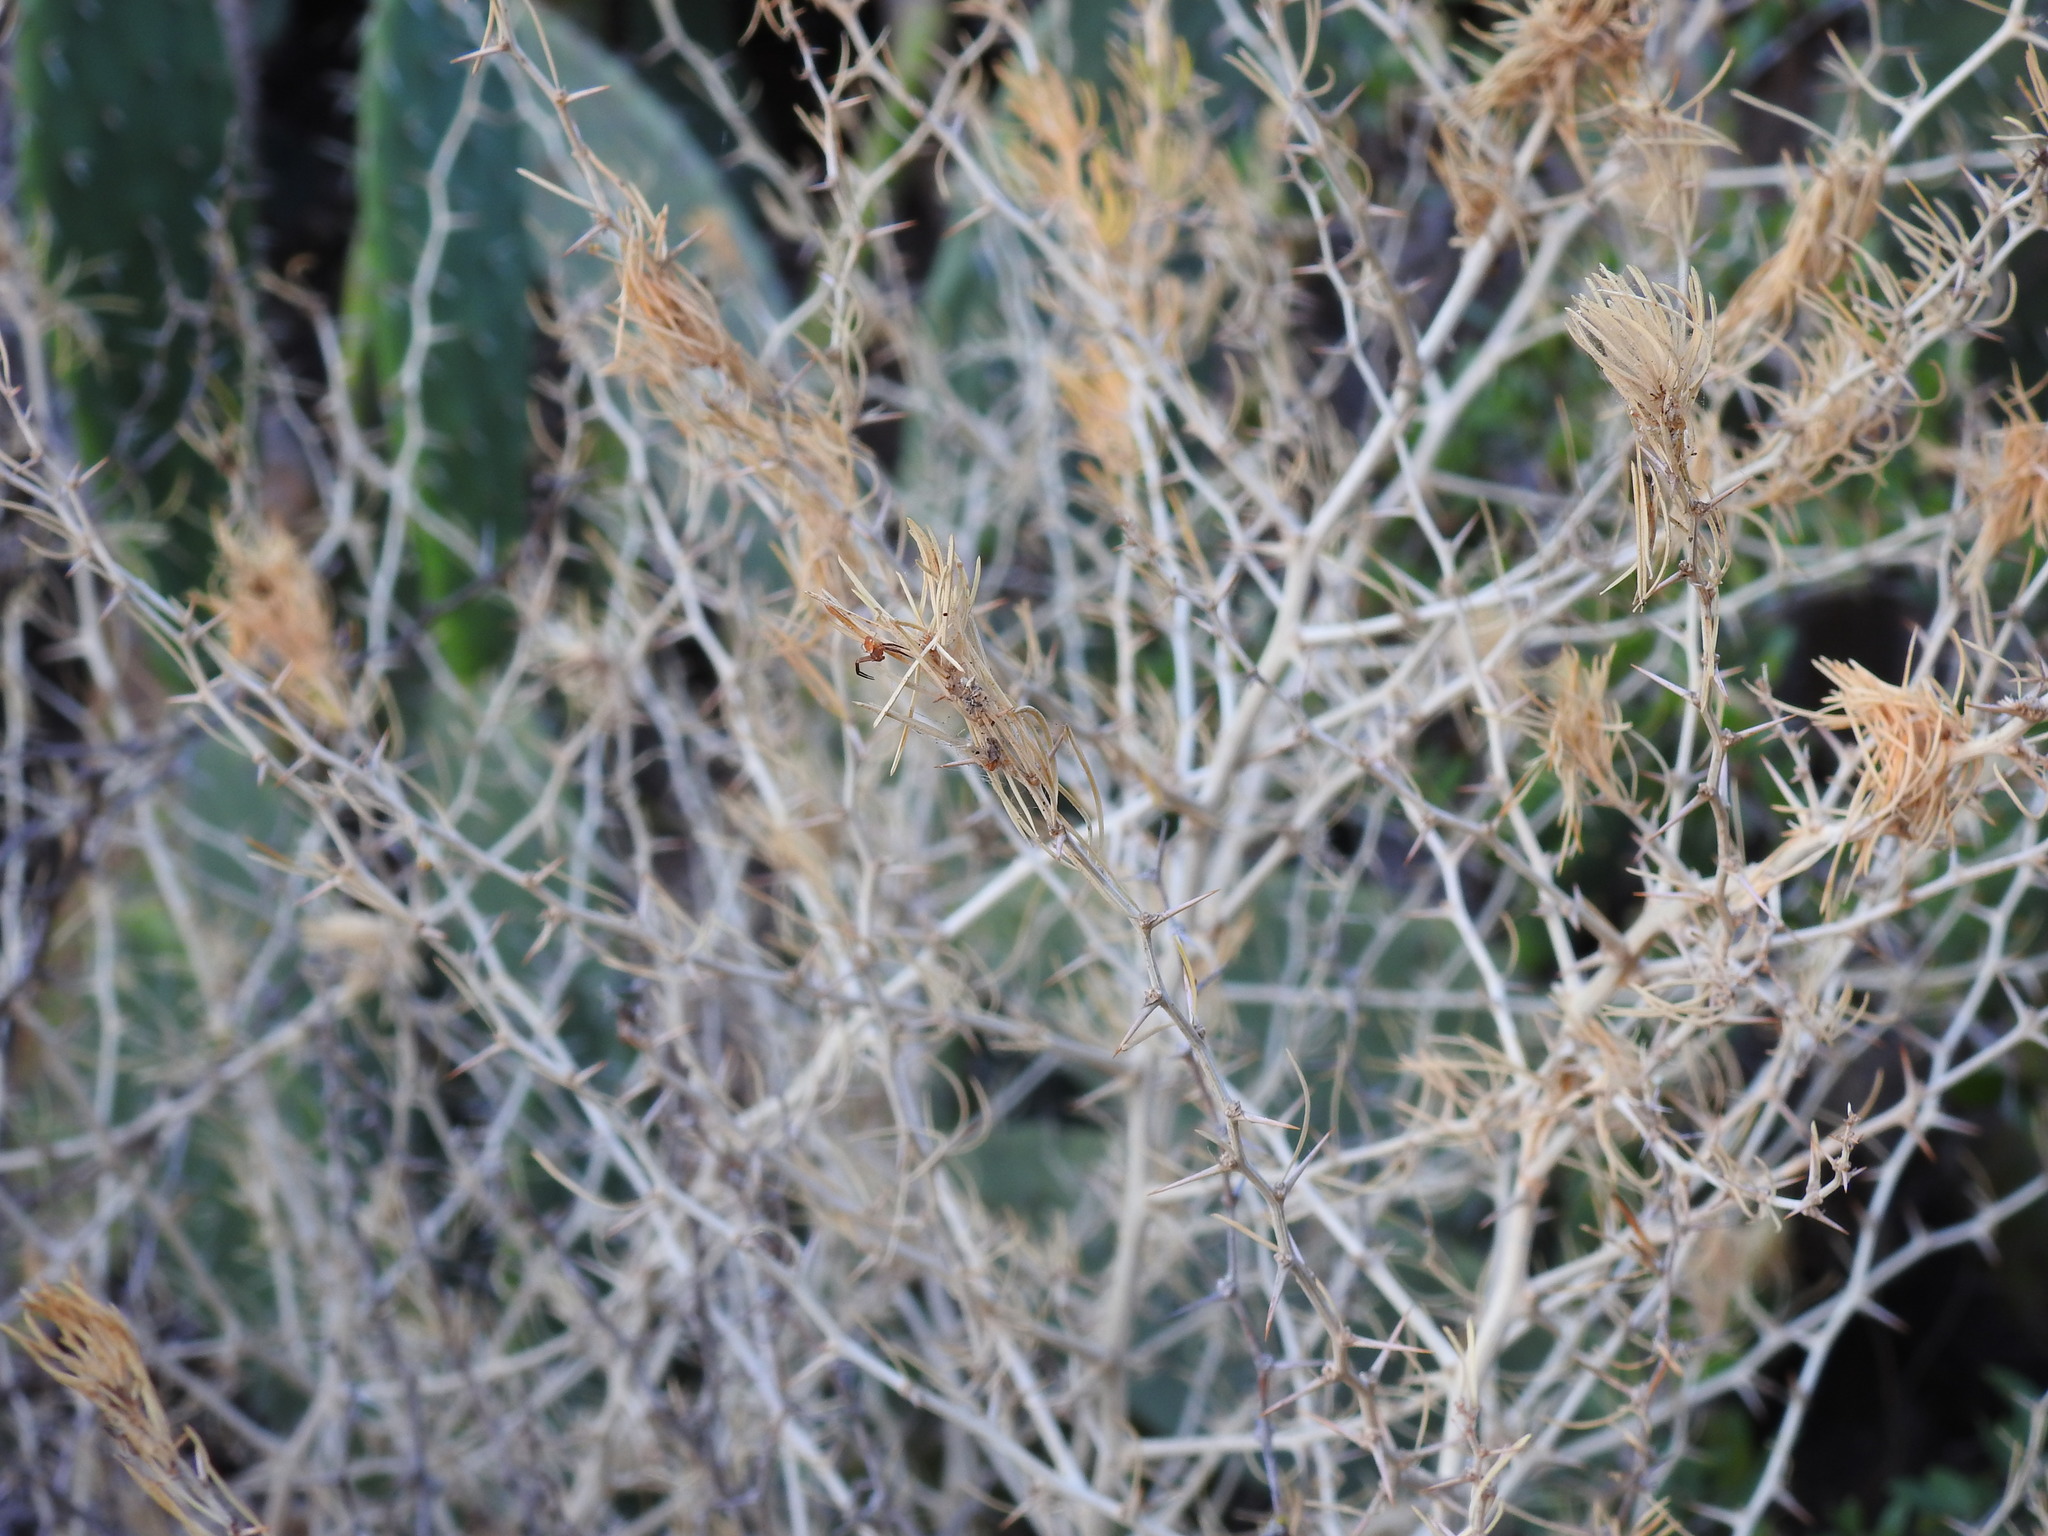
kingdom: Plantae
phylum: Tracheophyta
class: Liliopsida
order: Asparagales
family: Asparagaceae
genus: Asparagus
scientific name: Asparagus albus
